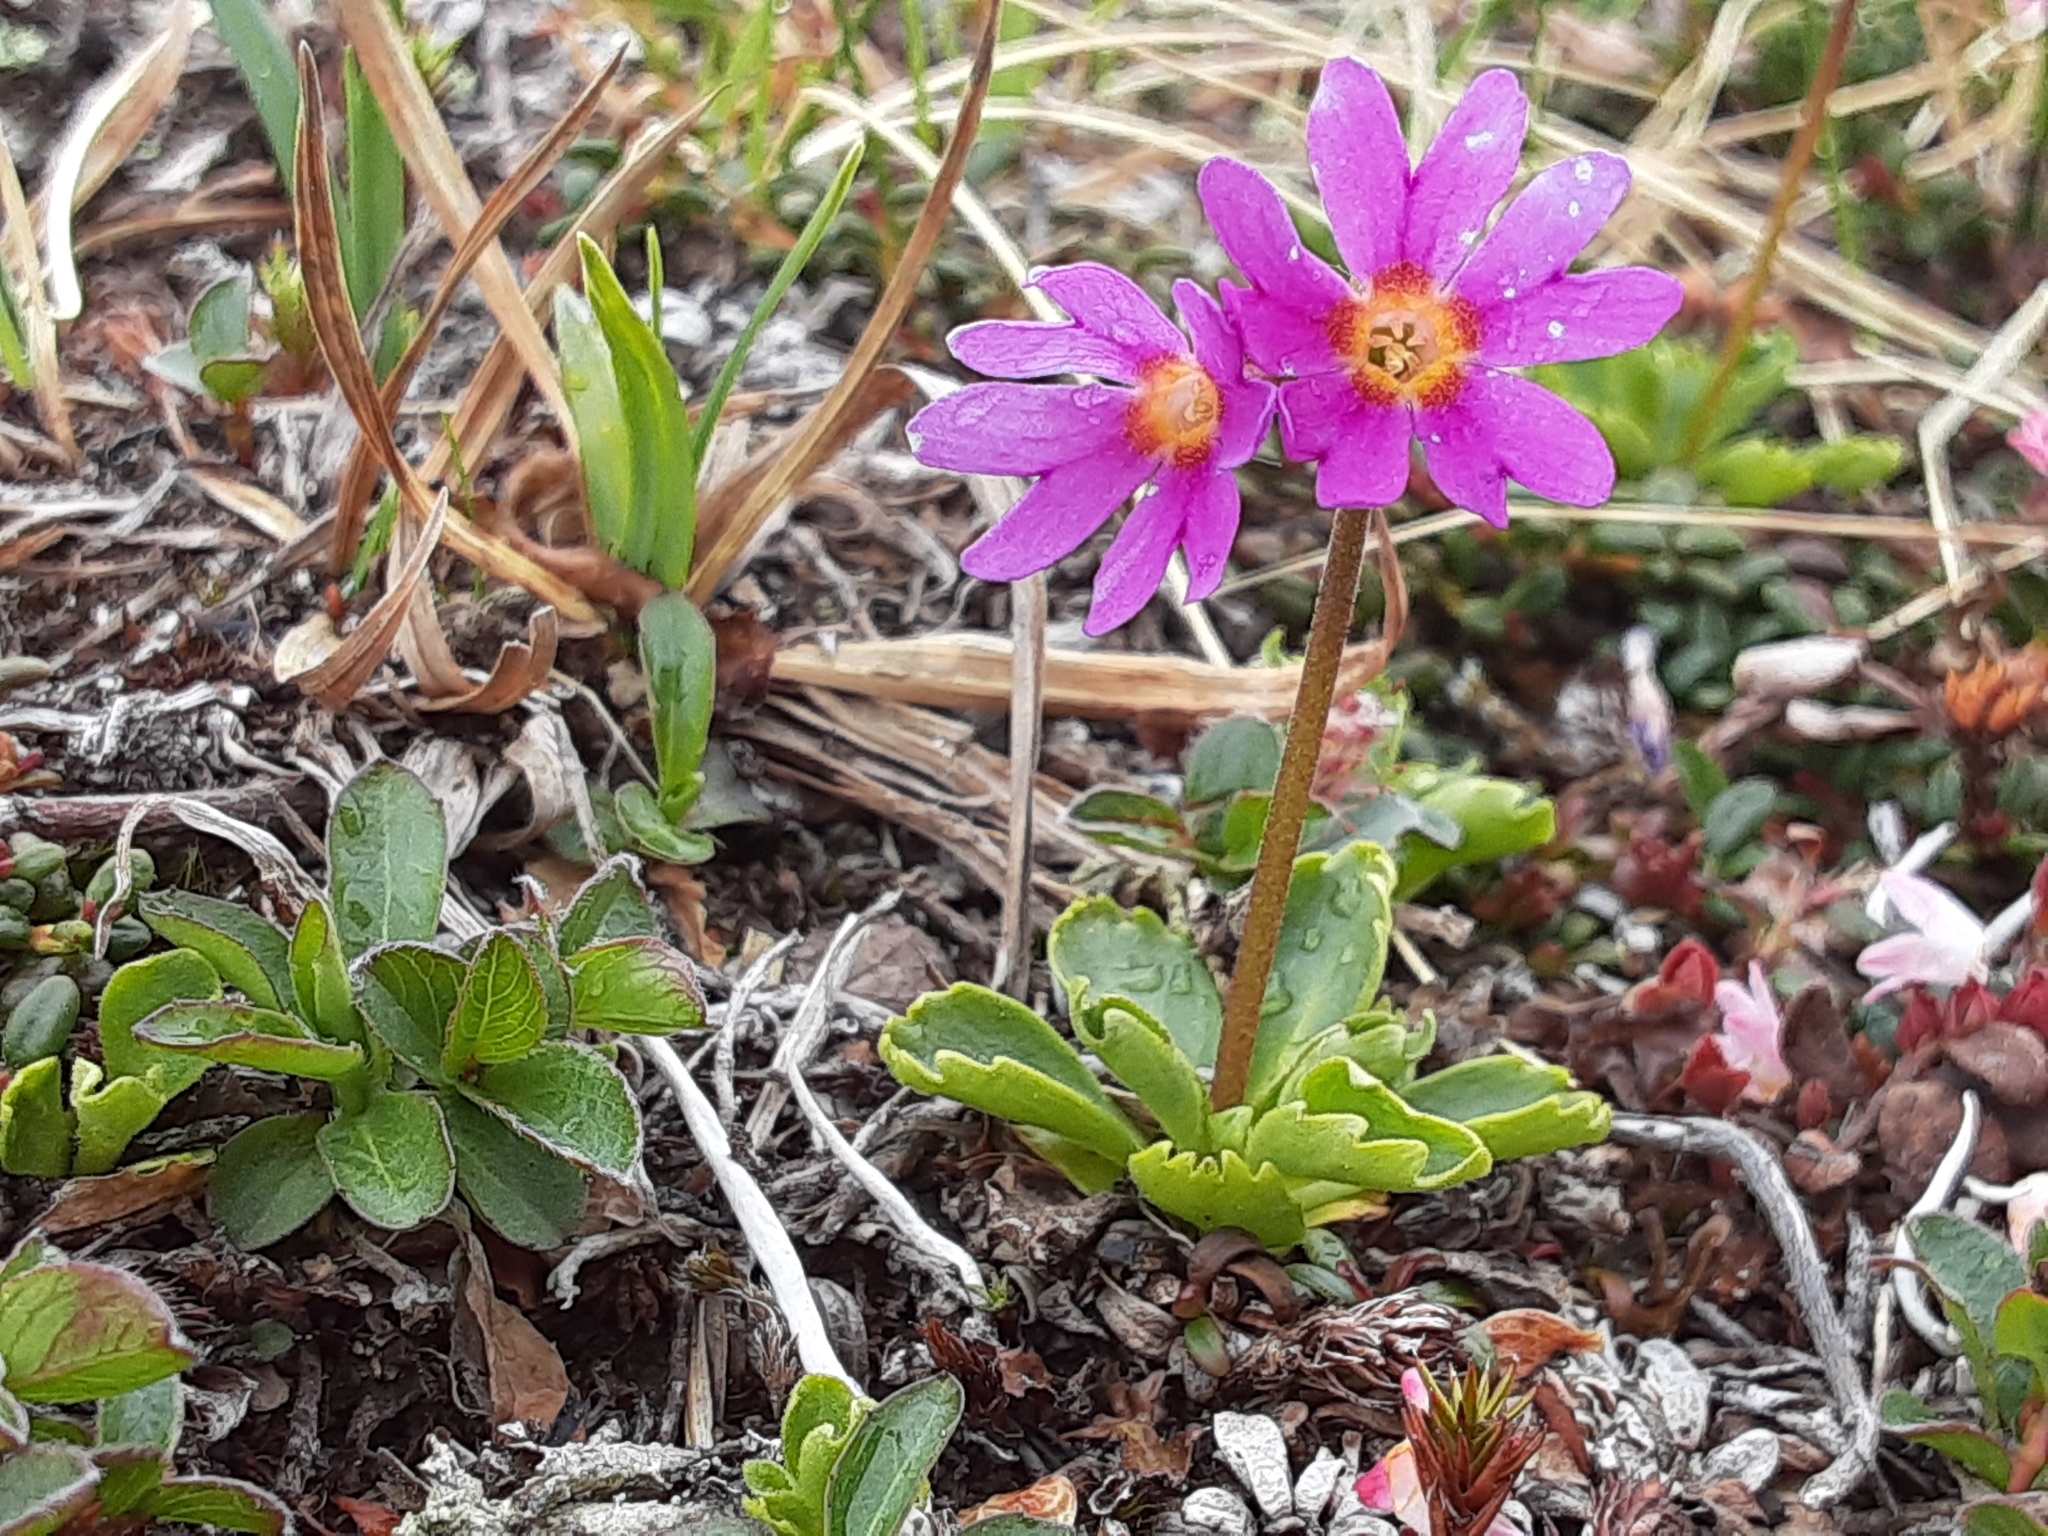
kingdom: Plantae
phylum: Tracheophyta
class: Magnoliopsida
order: Ericales
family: Primulaceae
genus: Primula
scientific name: Primula cuneifolia
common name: Wedge-leaved primrose
